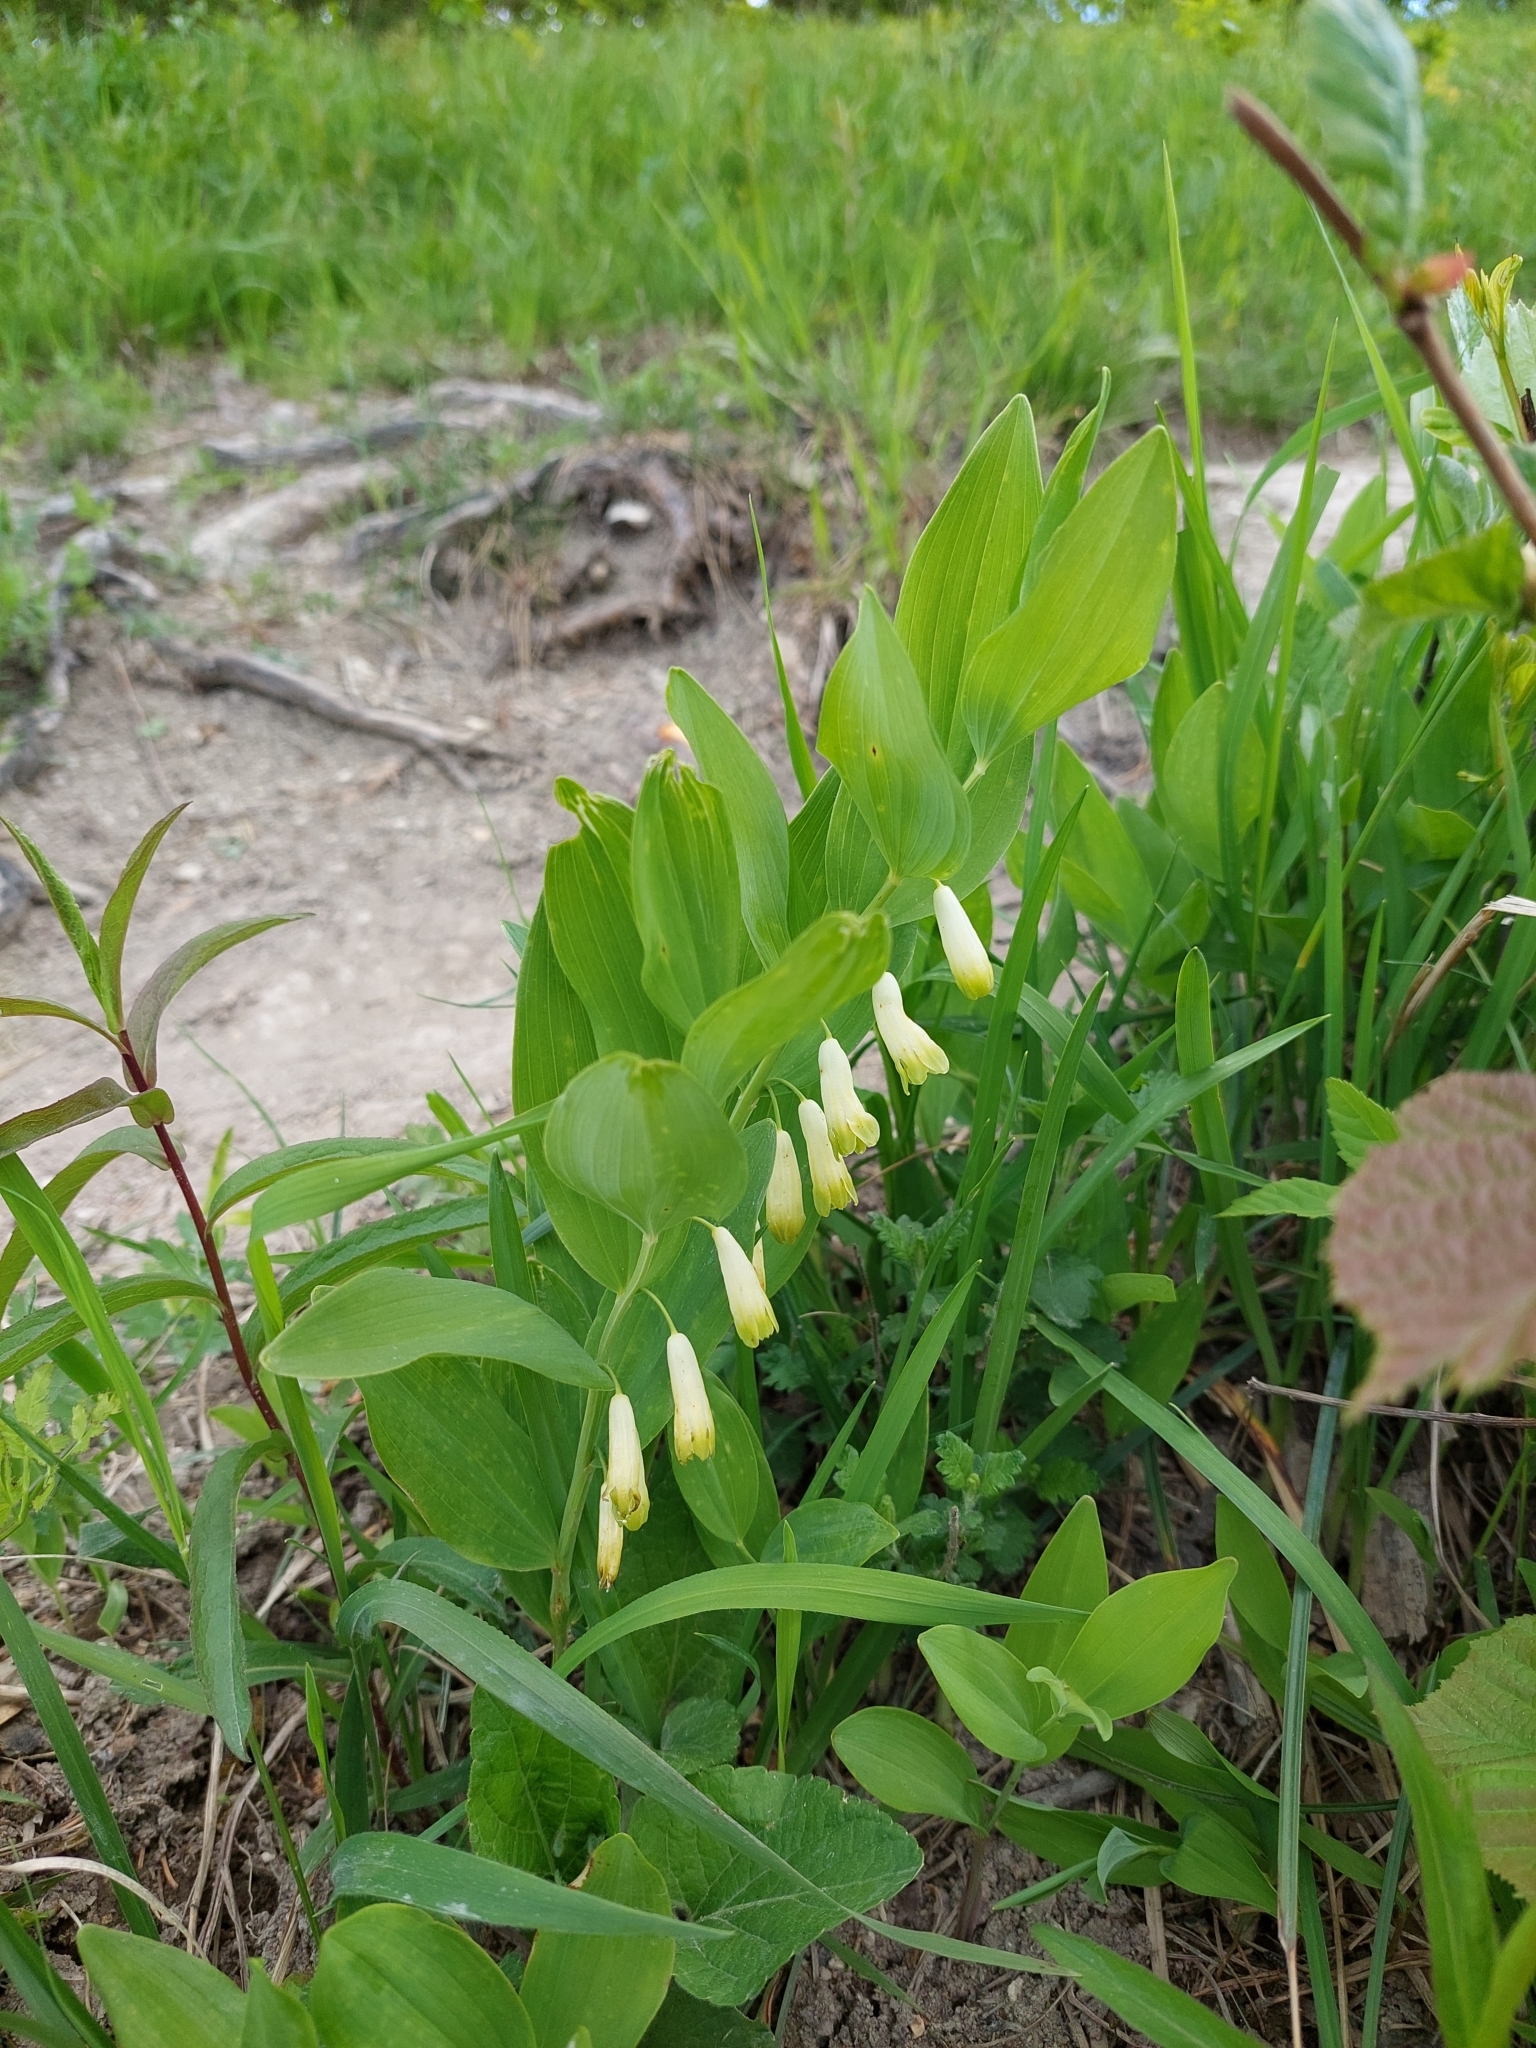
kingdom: Plantae
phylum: Tracheophyta
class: Liliopsida
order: Asparagales
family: Asparagaceae
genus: Polygonatum
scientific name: Polygonatum odoratum
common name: Angular solomon's-seal
